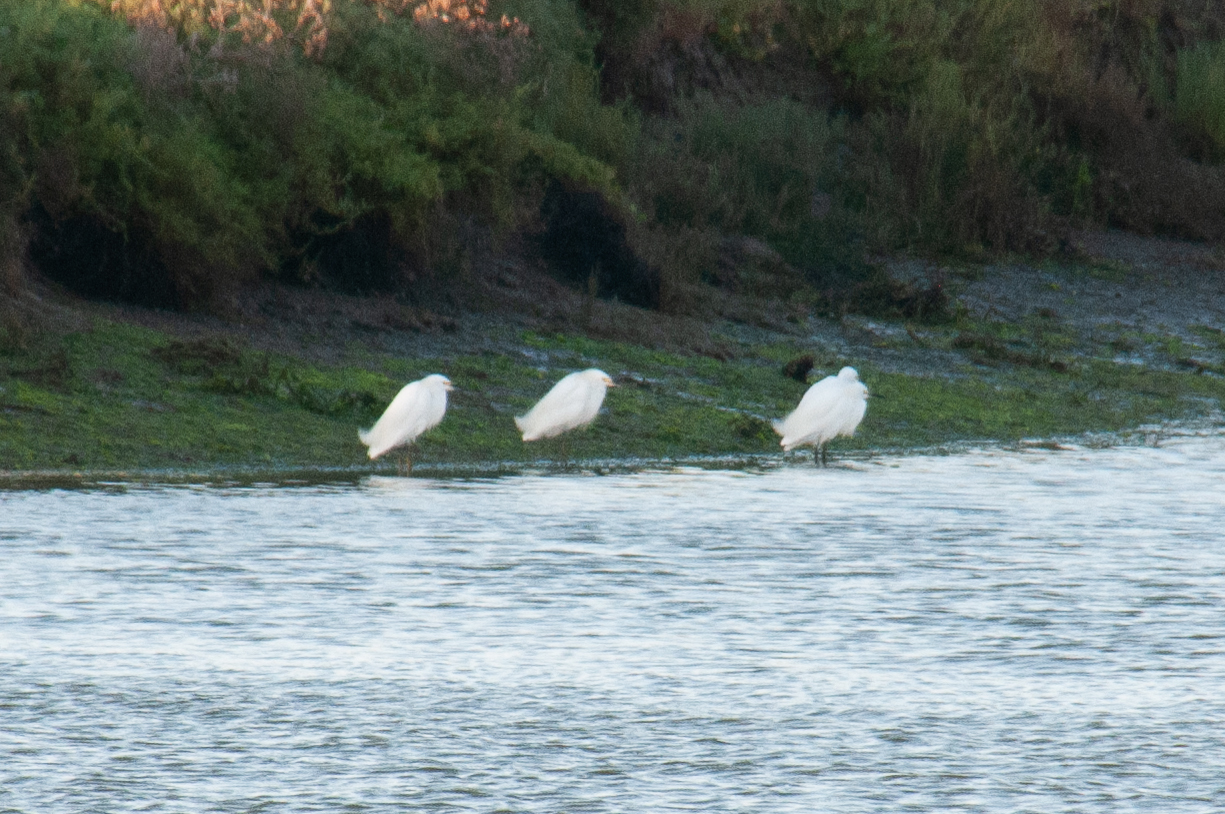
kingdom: Animalia
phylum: Chordata
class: Aves
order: Pelecaniformes
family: Ardeidae
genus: Egretta
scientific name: Egretta thula
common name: Snowy egret
